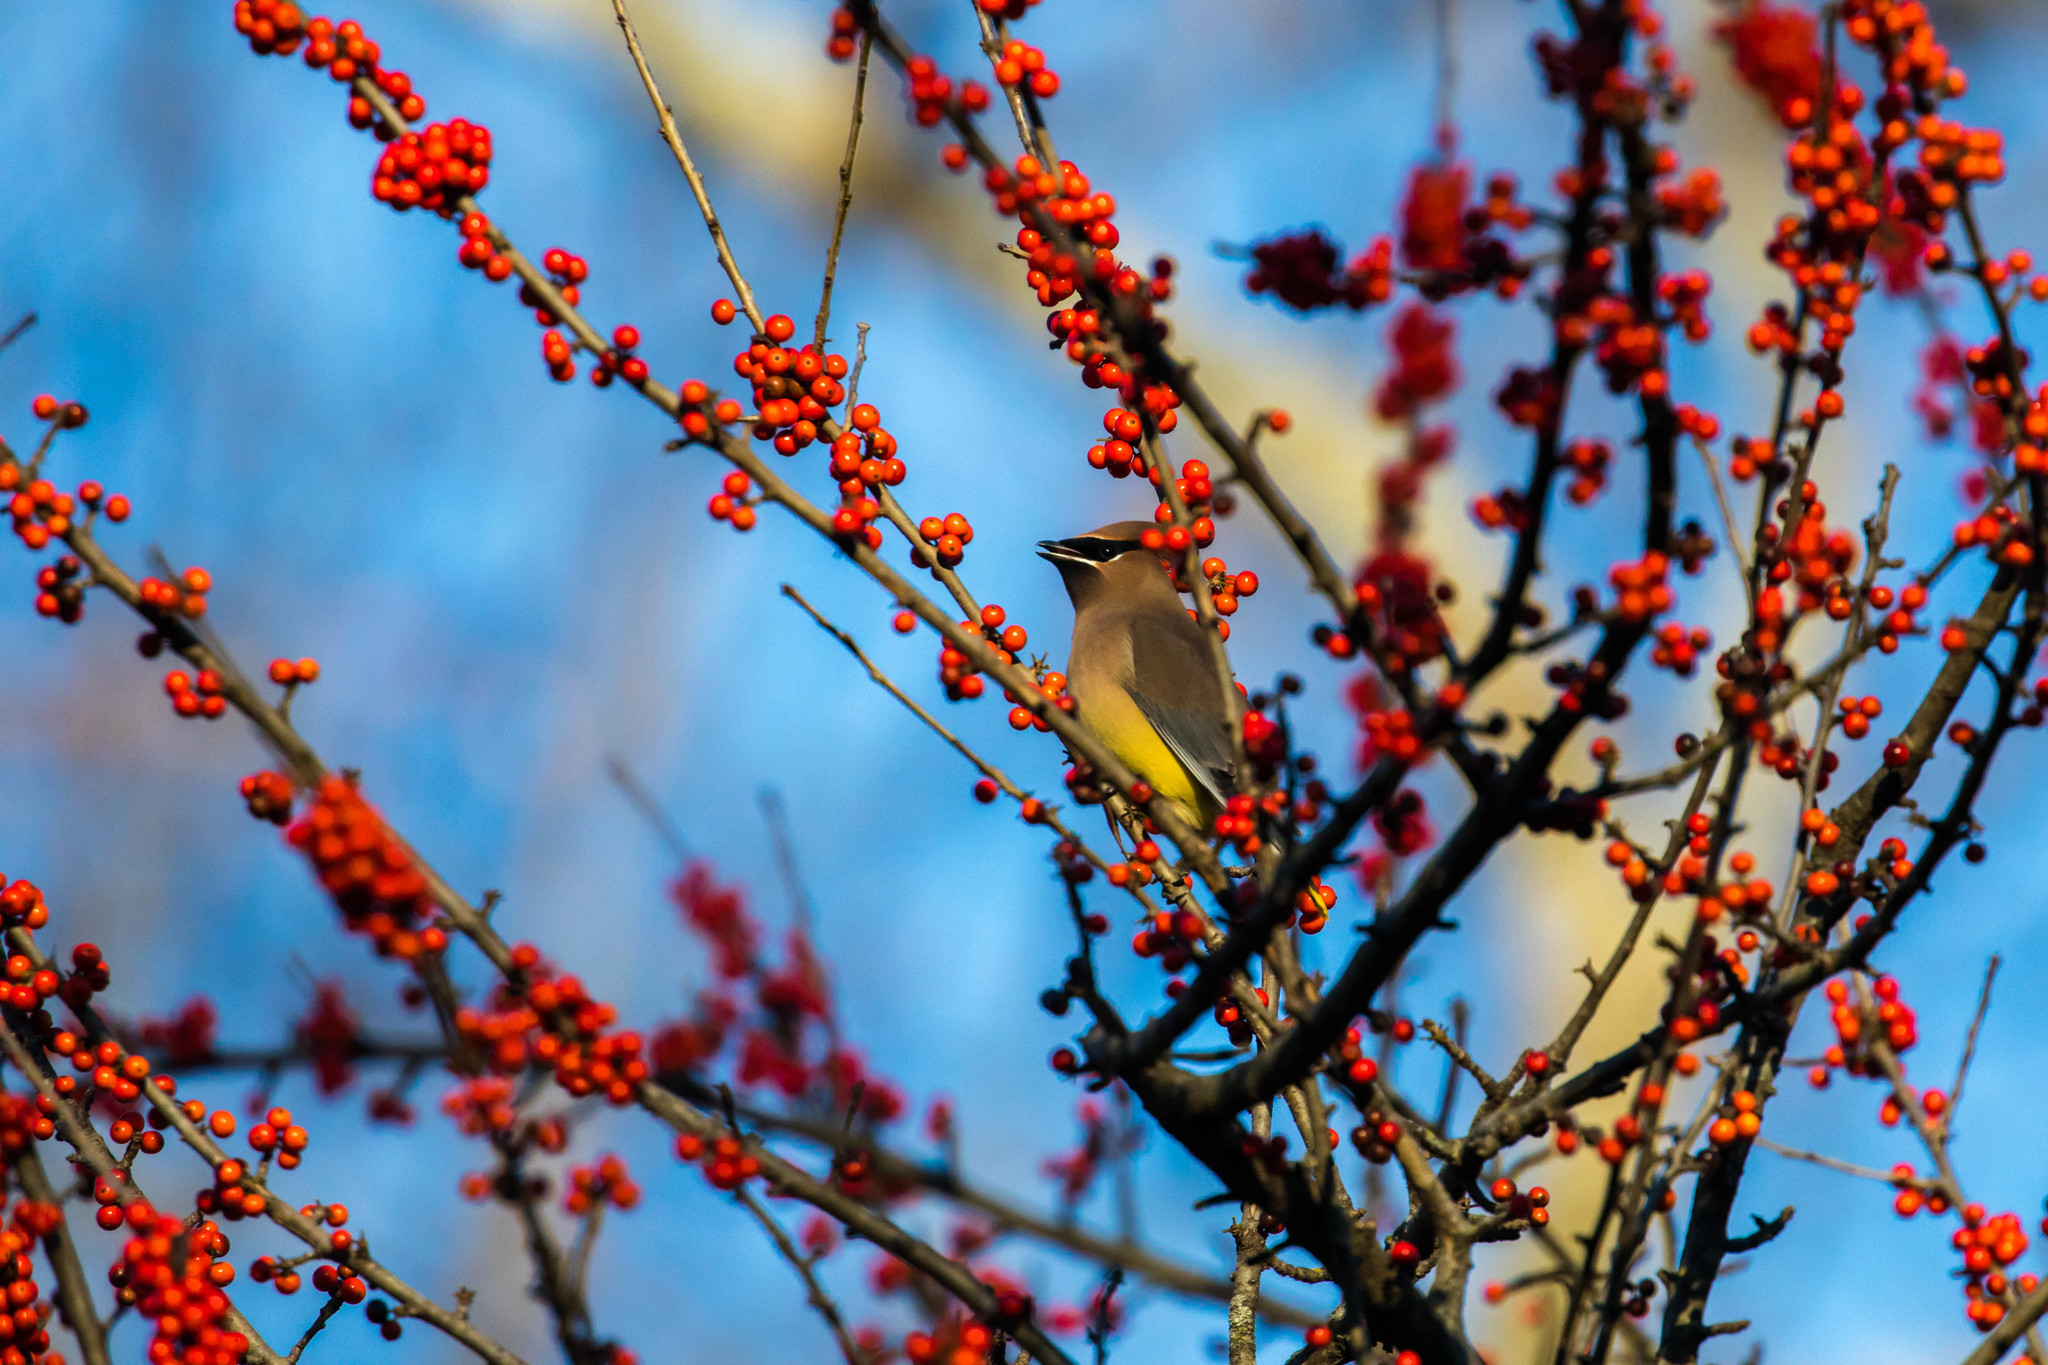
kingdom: Animalia
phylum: Chordata
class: Aves
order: Passeriformes
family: Bombycillidae
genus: Bombycilla
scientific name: Bombycilla cedrorum
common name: Cedar waxwing
